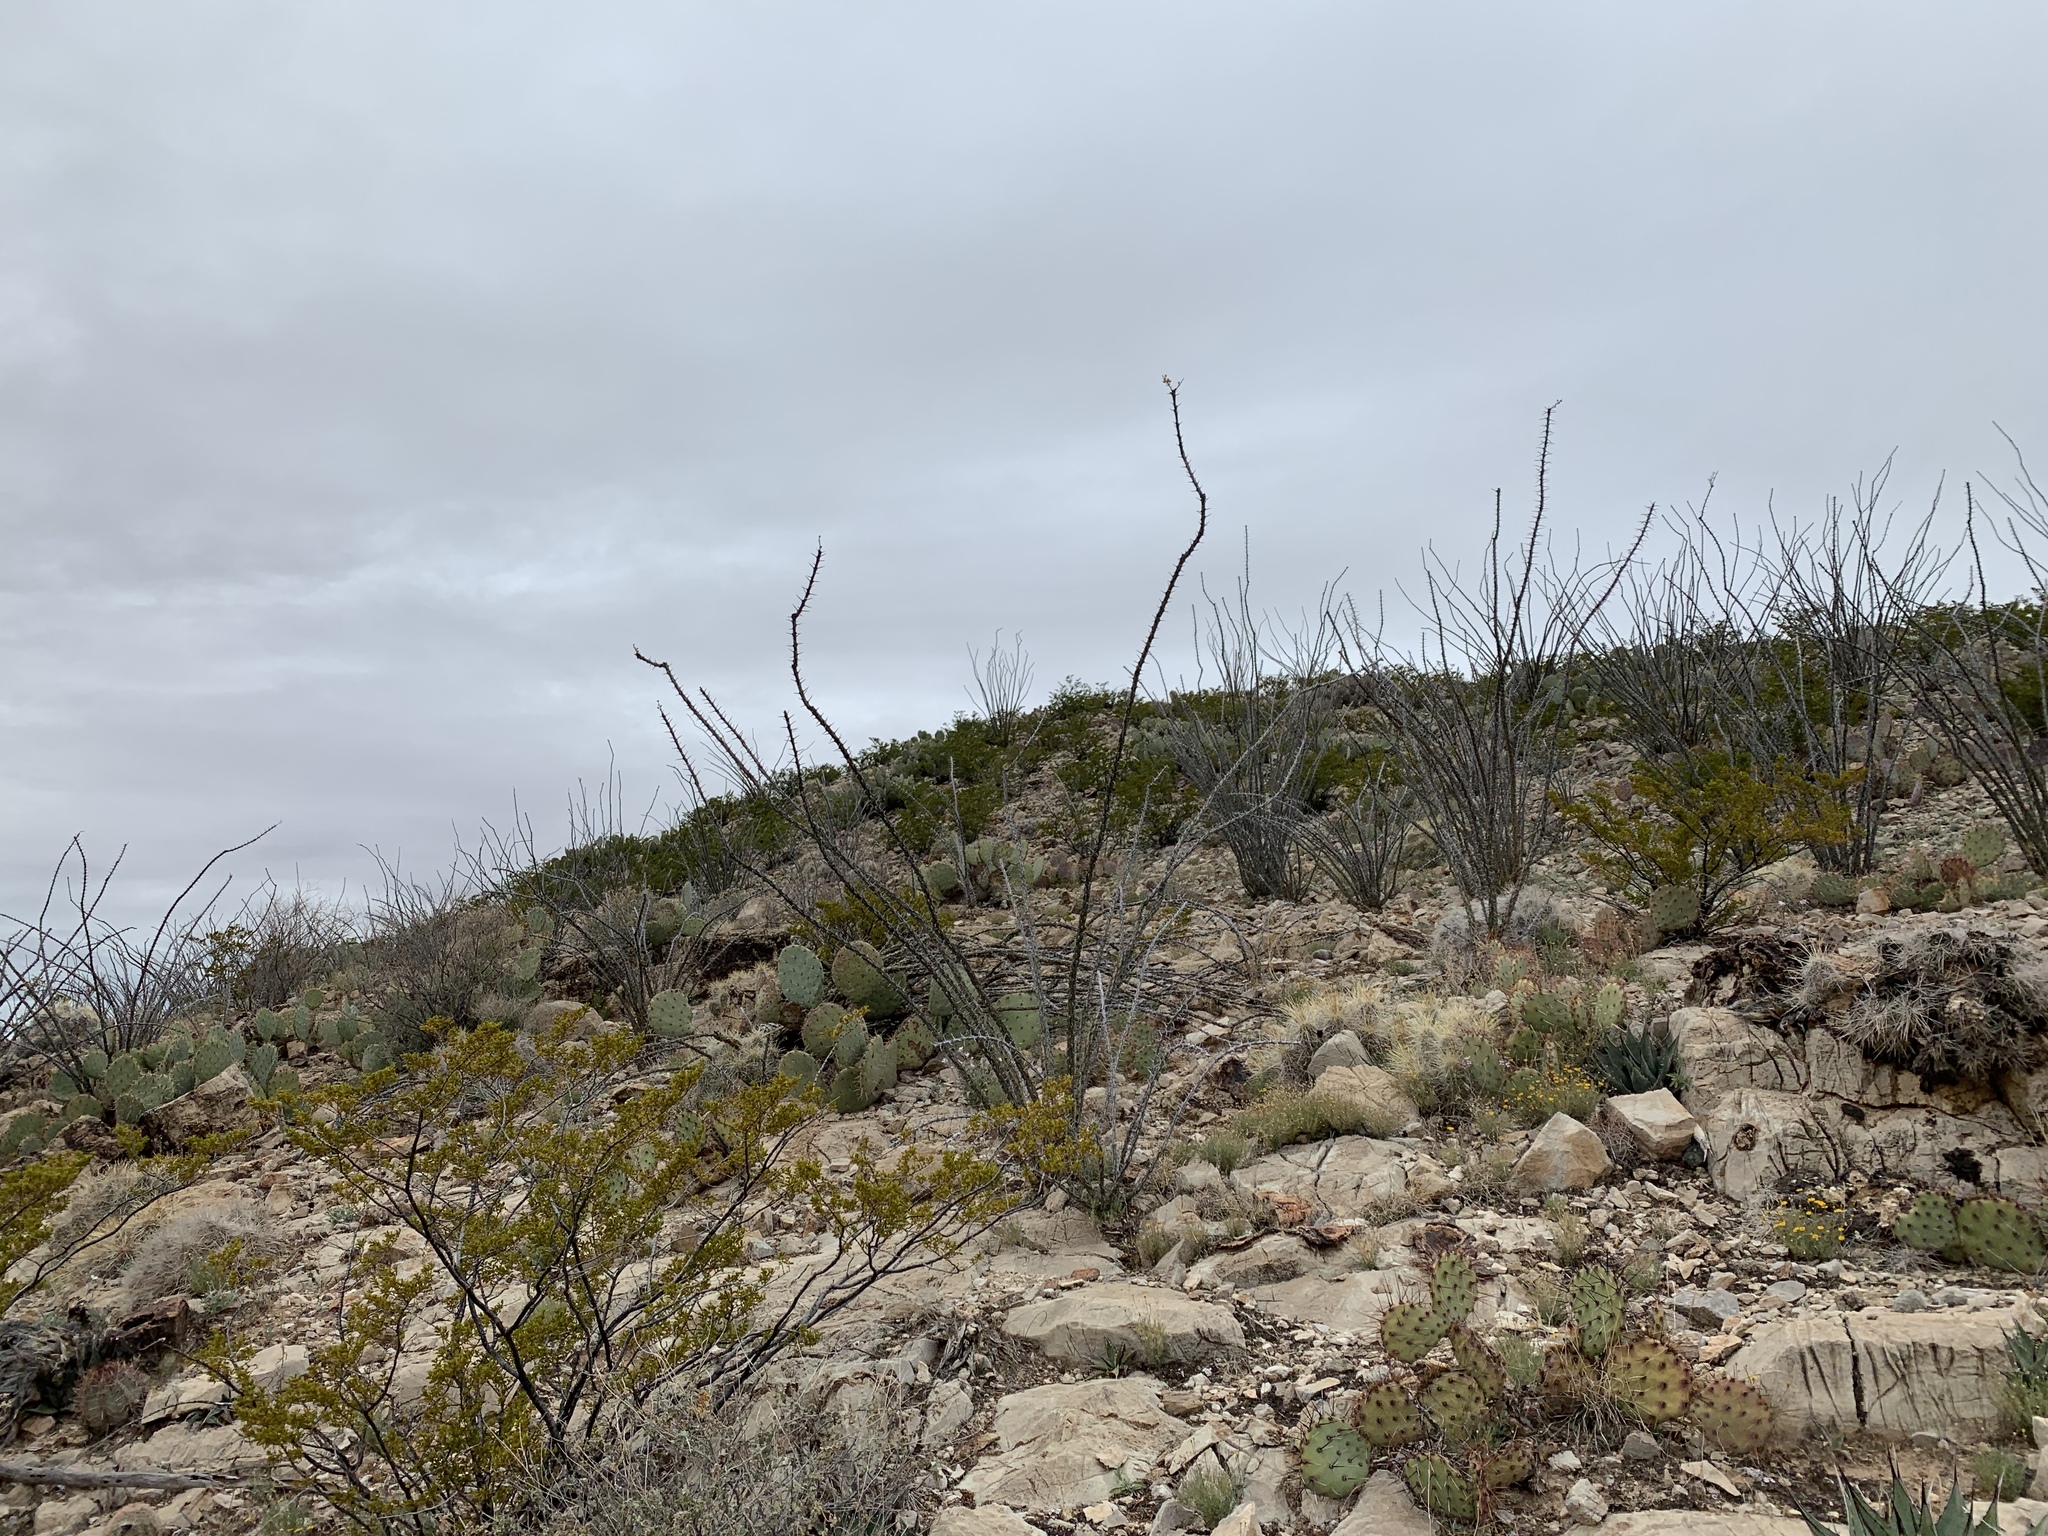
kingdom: Plantae
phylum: Tracheophyta
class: Magnoliopsida
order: Ericales
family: Fouquieriaceae
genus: Fouquieria
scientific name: Fouquieria splendens
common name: Vine-cactus
